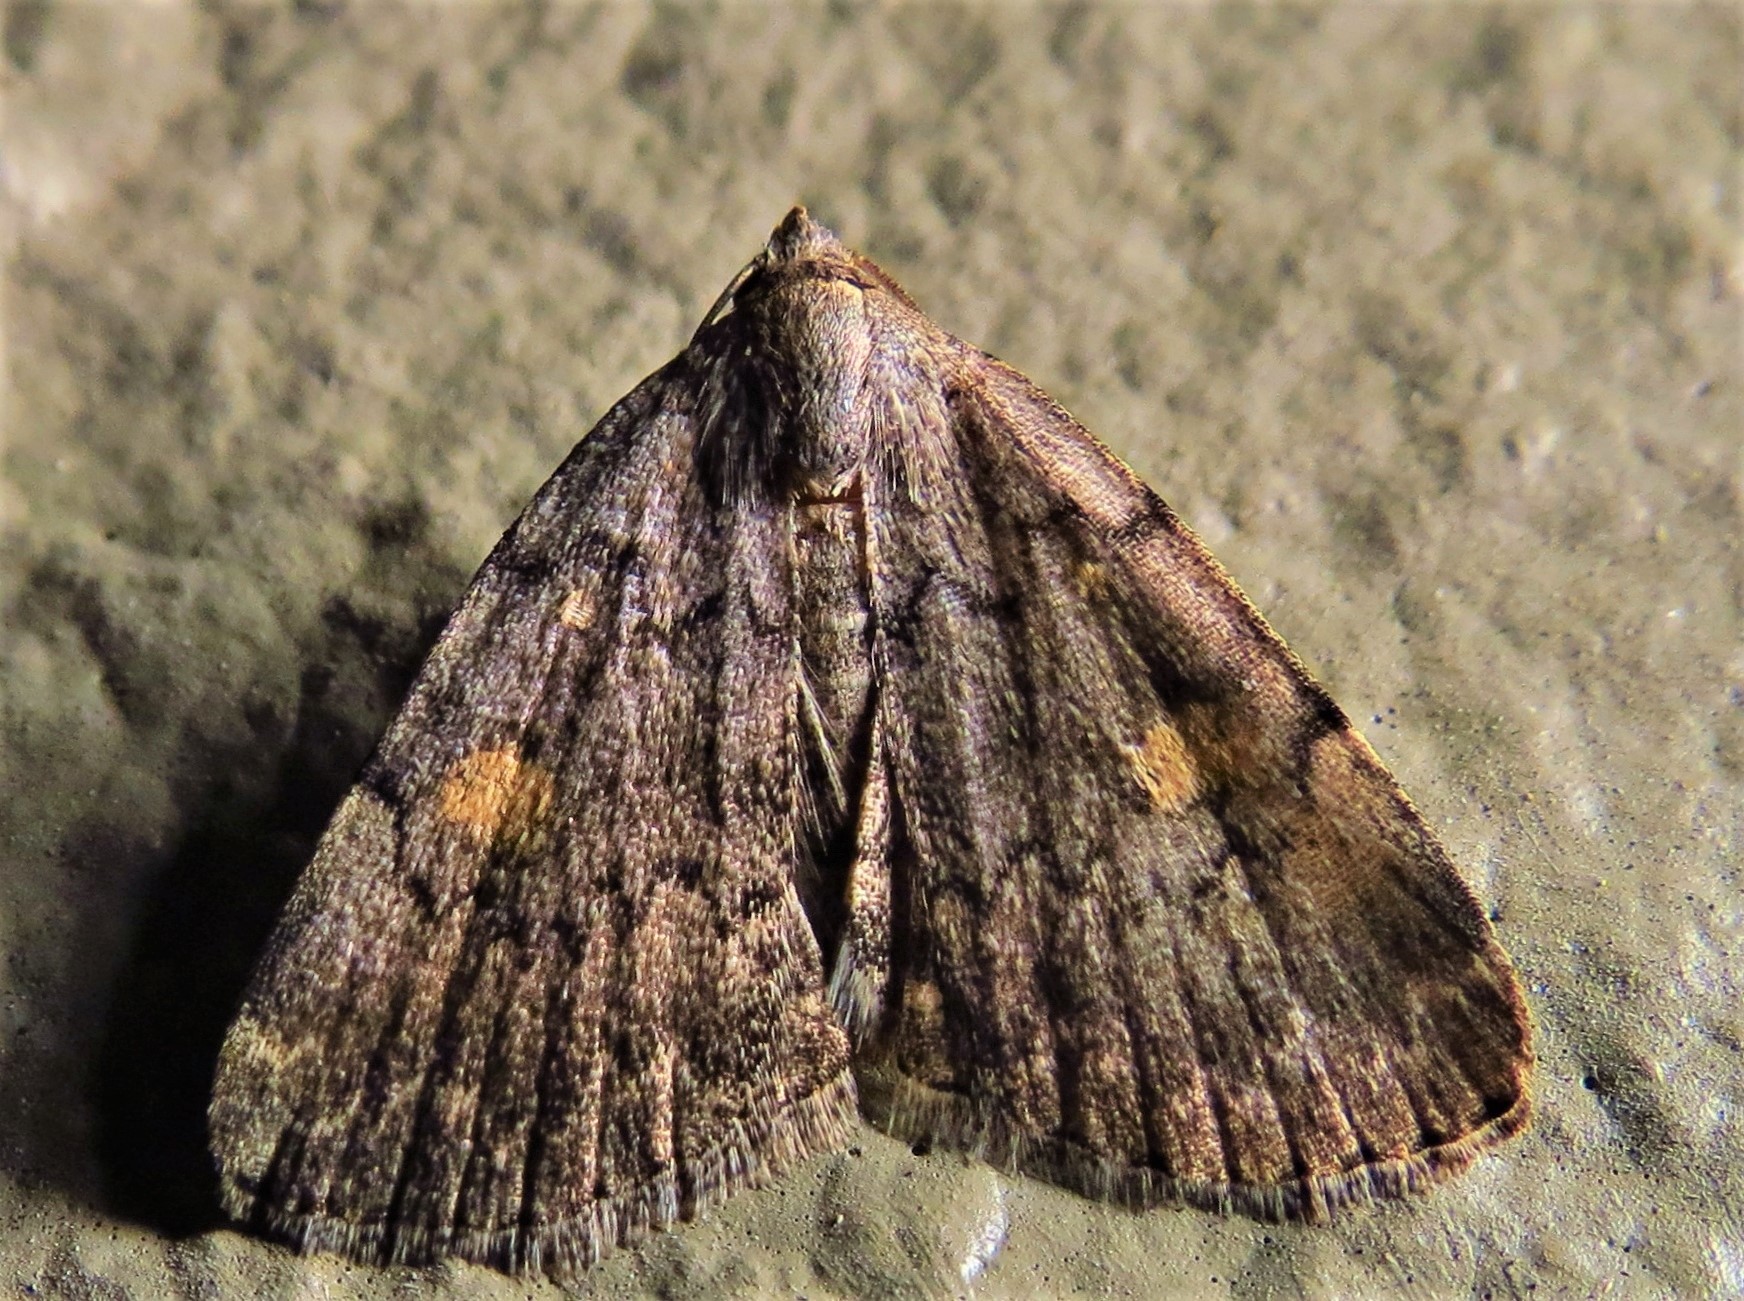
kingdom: Animalia
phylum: Arthropoda
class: Insecta
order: Lepidoptera
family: Erebidae
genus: Idia
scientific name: Idia aemula
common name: Common idia moth
